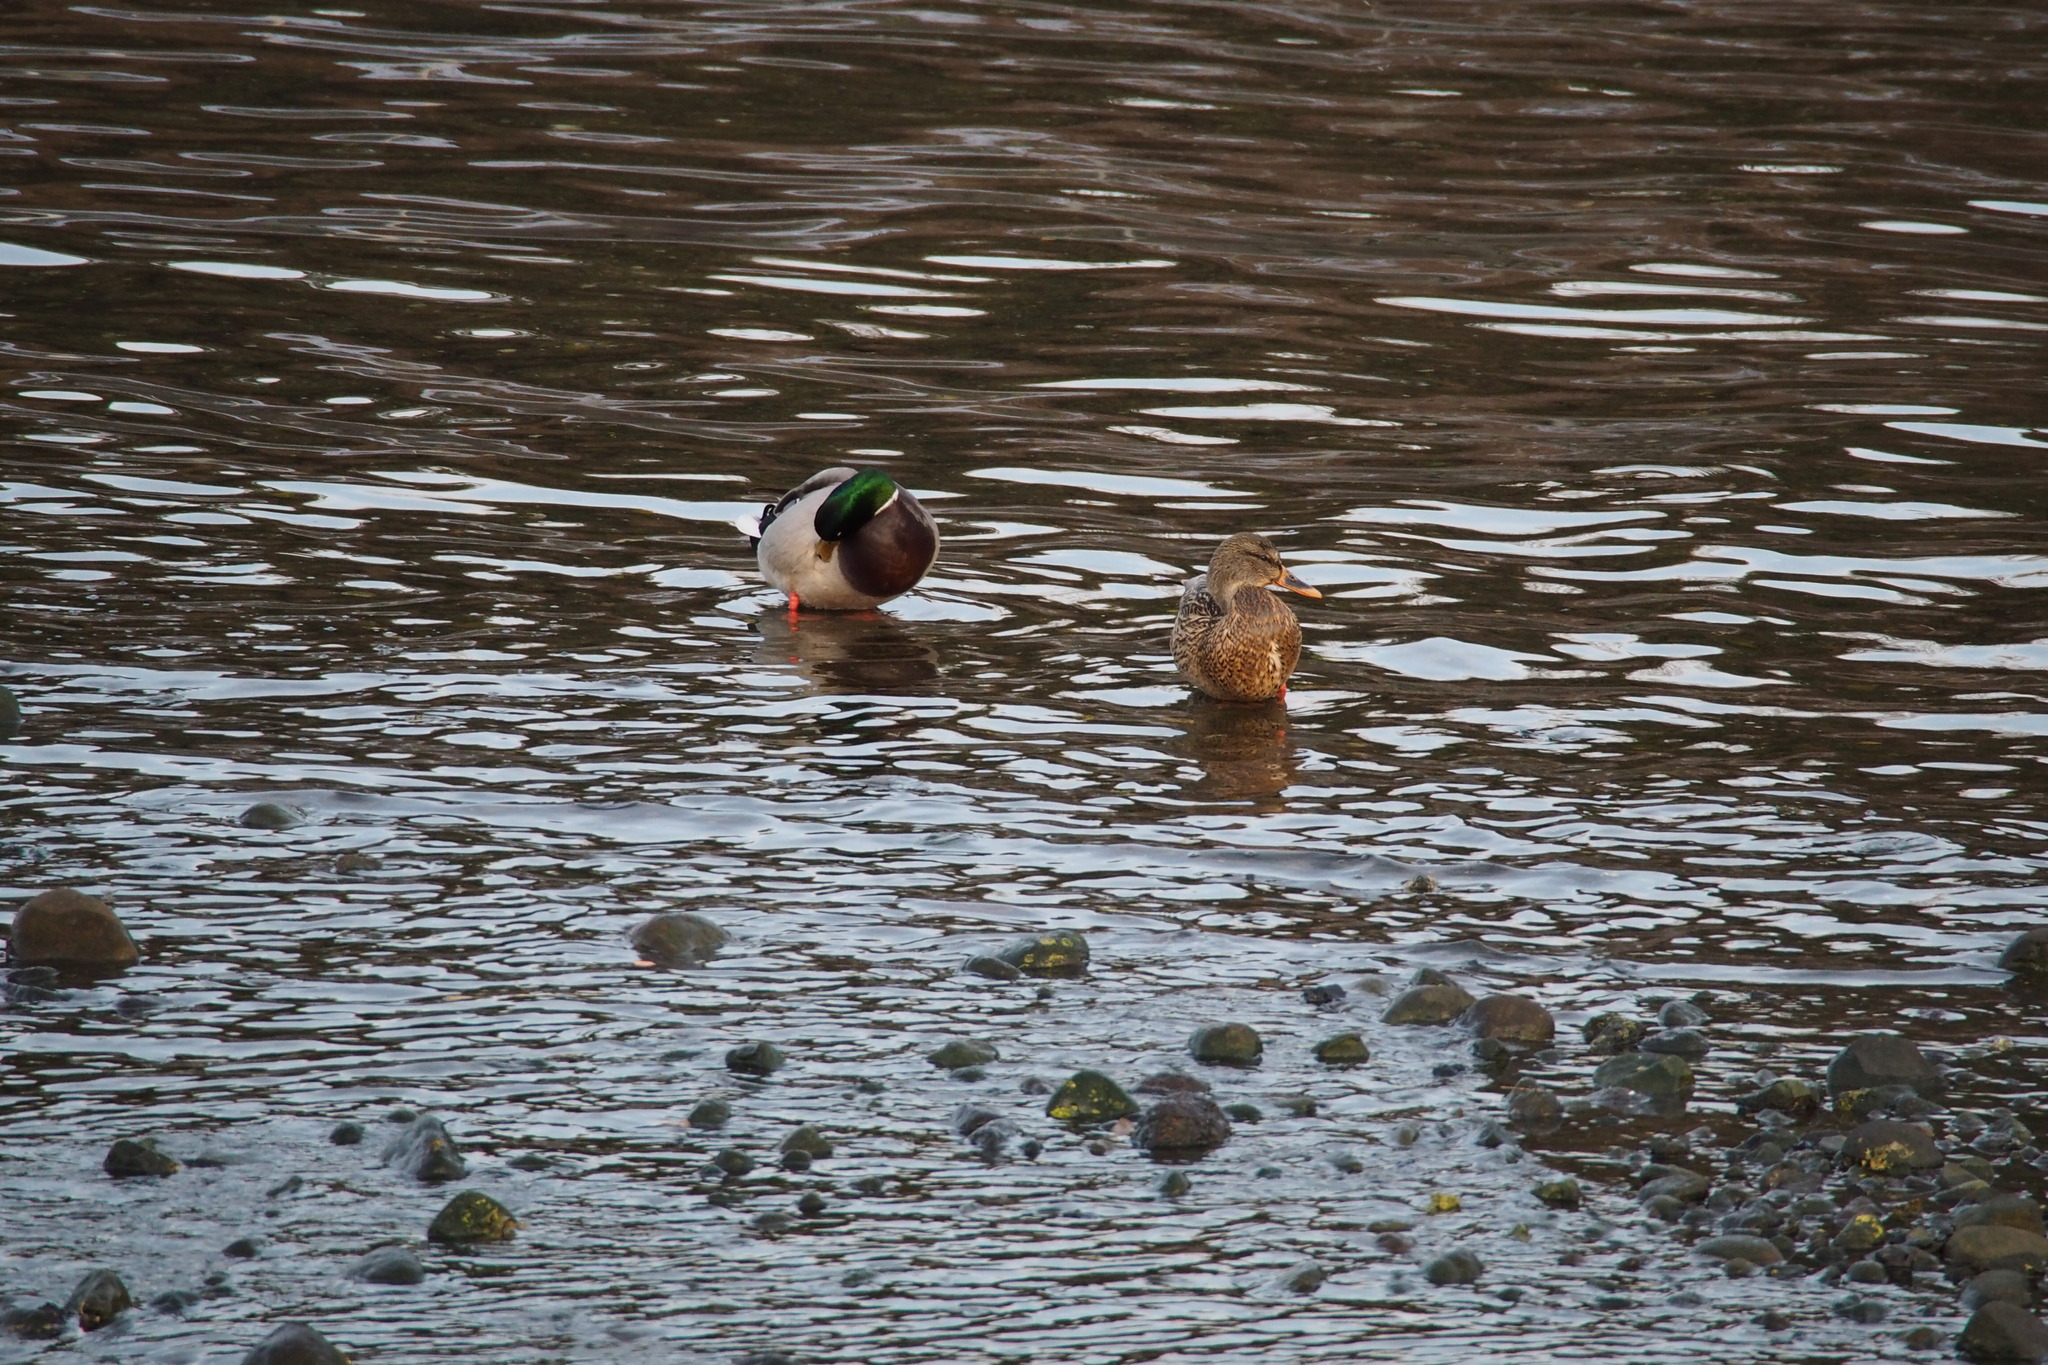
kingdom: Animalia
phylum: Chordata
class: Aves
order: Anseriformes
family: Anatidae
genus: Anas
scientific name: Anas platyrhynchos
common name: Mallard
